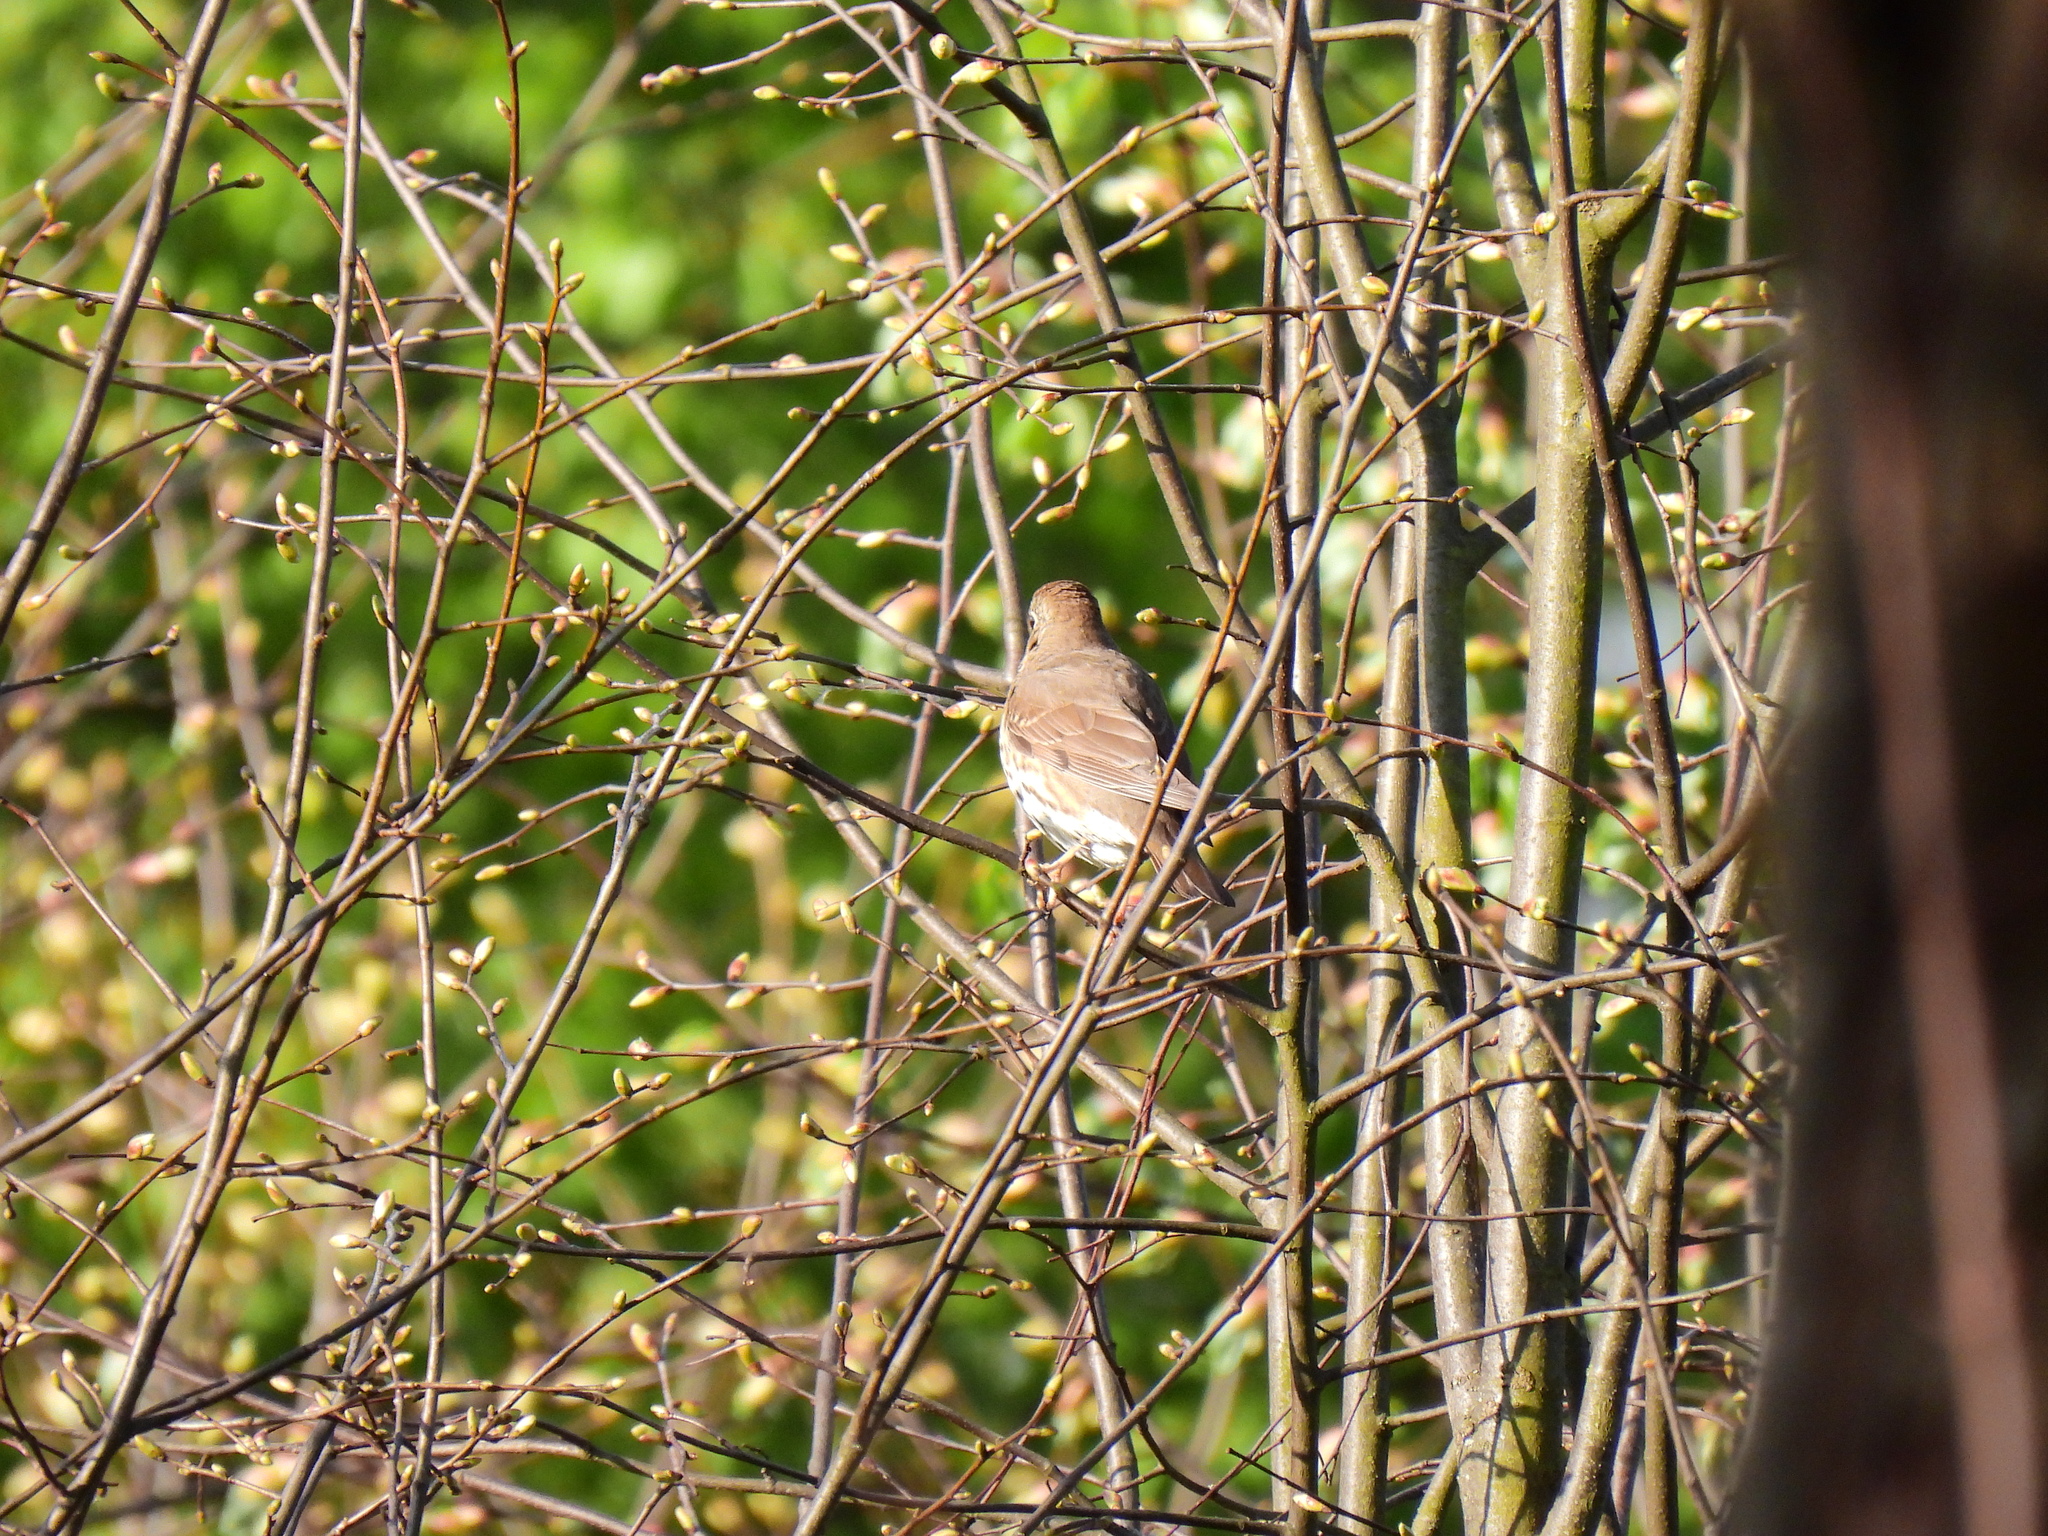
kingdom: Animalia
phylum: Chordata
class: Aves
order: Passeriformes
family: Turdidae
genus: Turdus
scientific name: Turdus philomelos
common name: Song thrush
